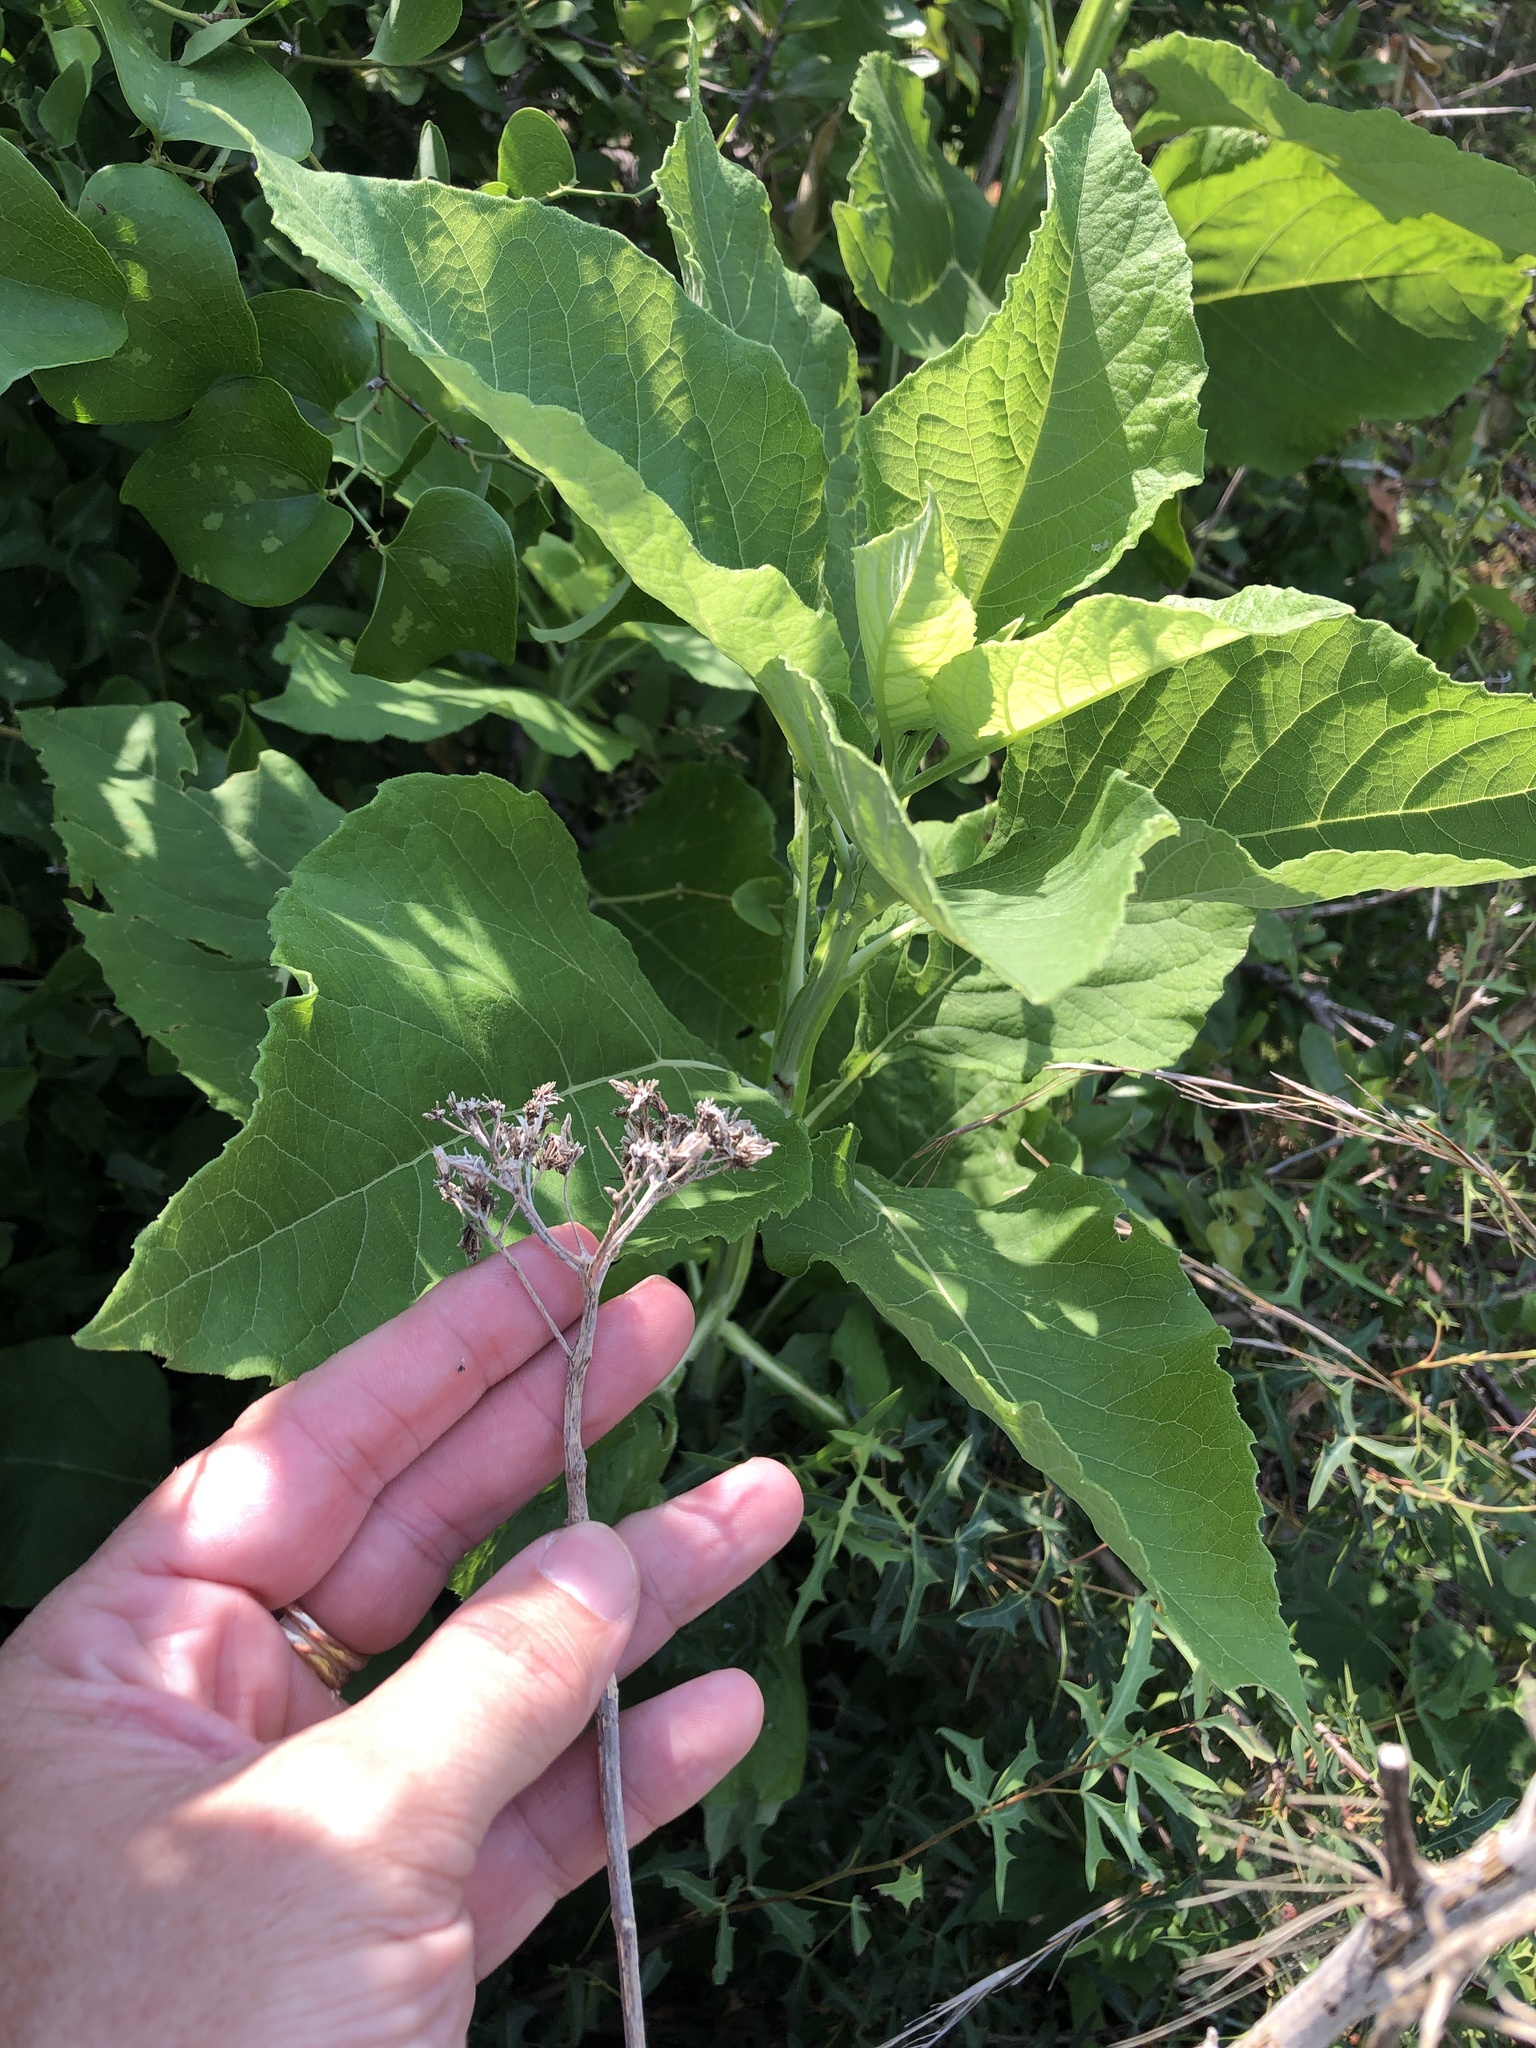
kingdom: Plantae
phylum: Tracheophyta
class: Magnoliopsida
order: Asterales
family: Asteraceae
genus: Verbesina
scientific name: Verbesina virginica
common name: Frostweed
